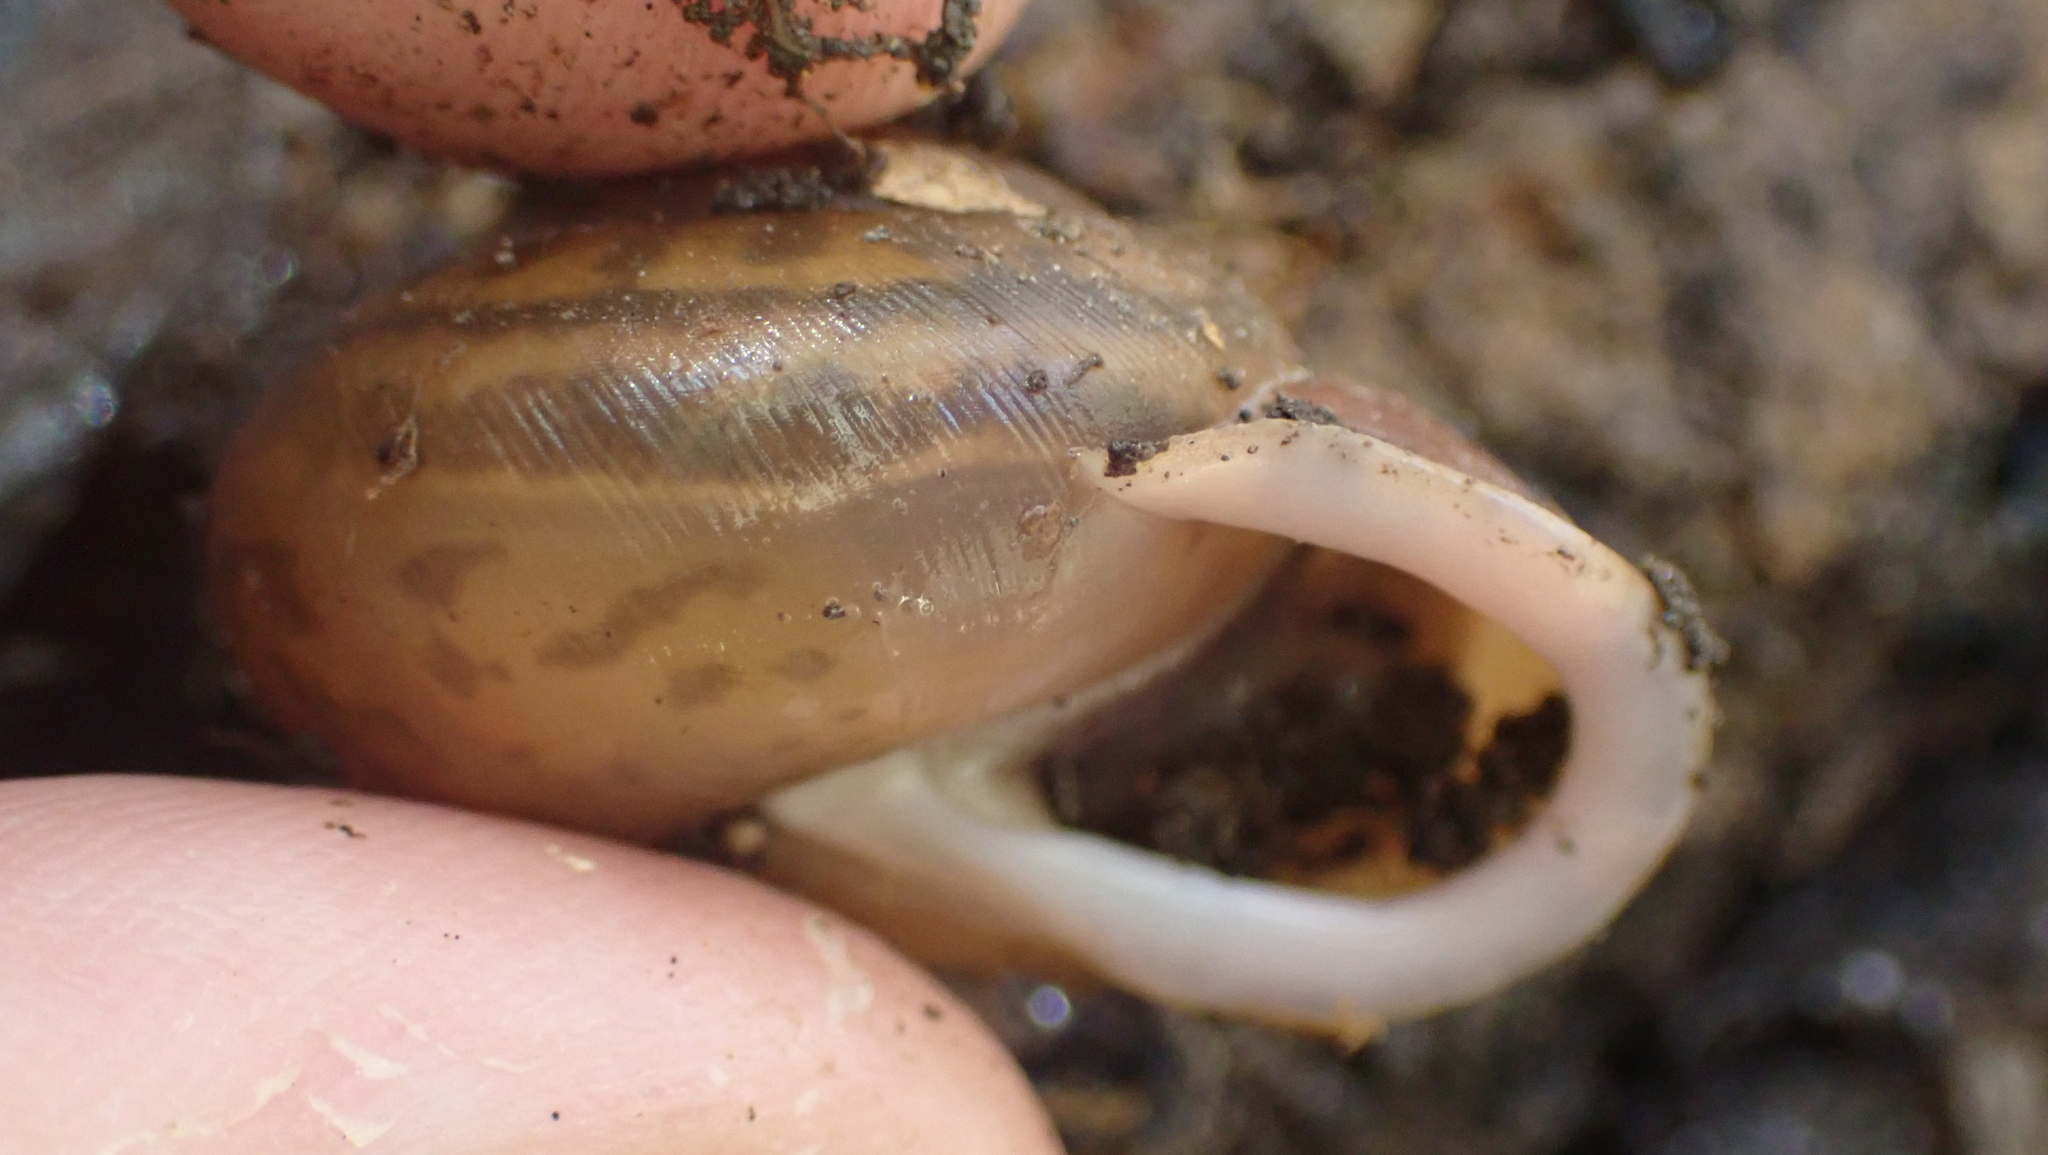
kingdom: Animalia
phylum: Mollusca
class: Gastropoda
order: Stylommatophora
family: Polygyridae
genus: Neohelix
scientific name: Neohelix albolabris
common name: Eastern whitelip
